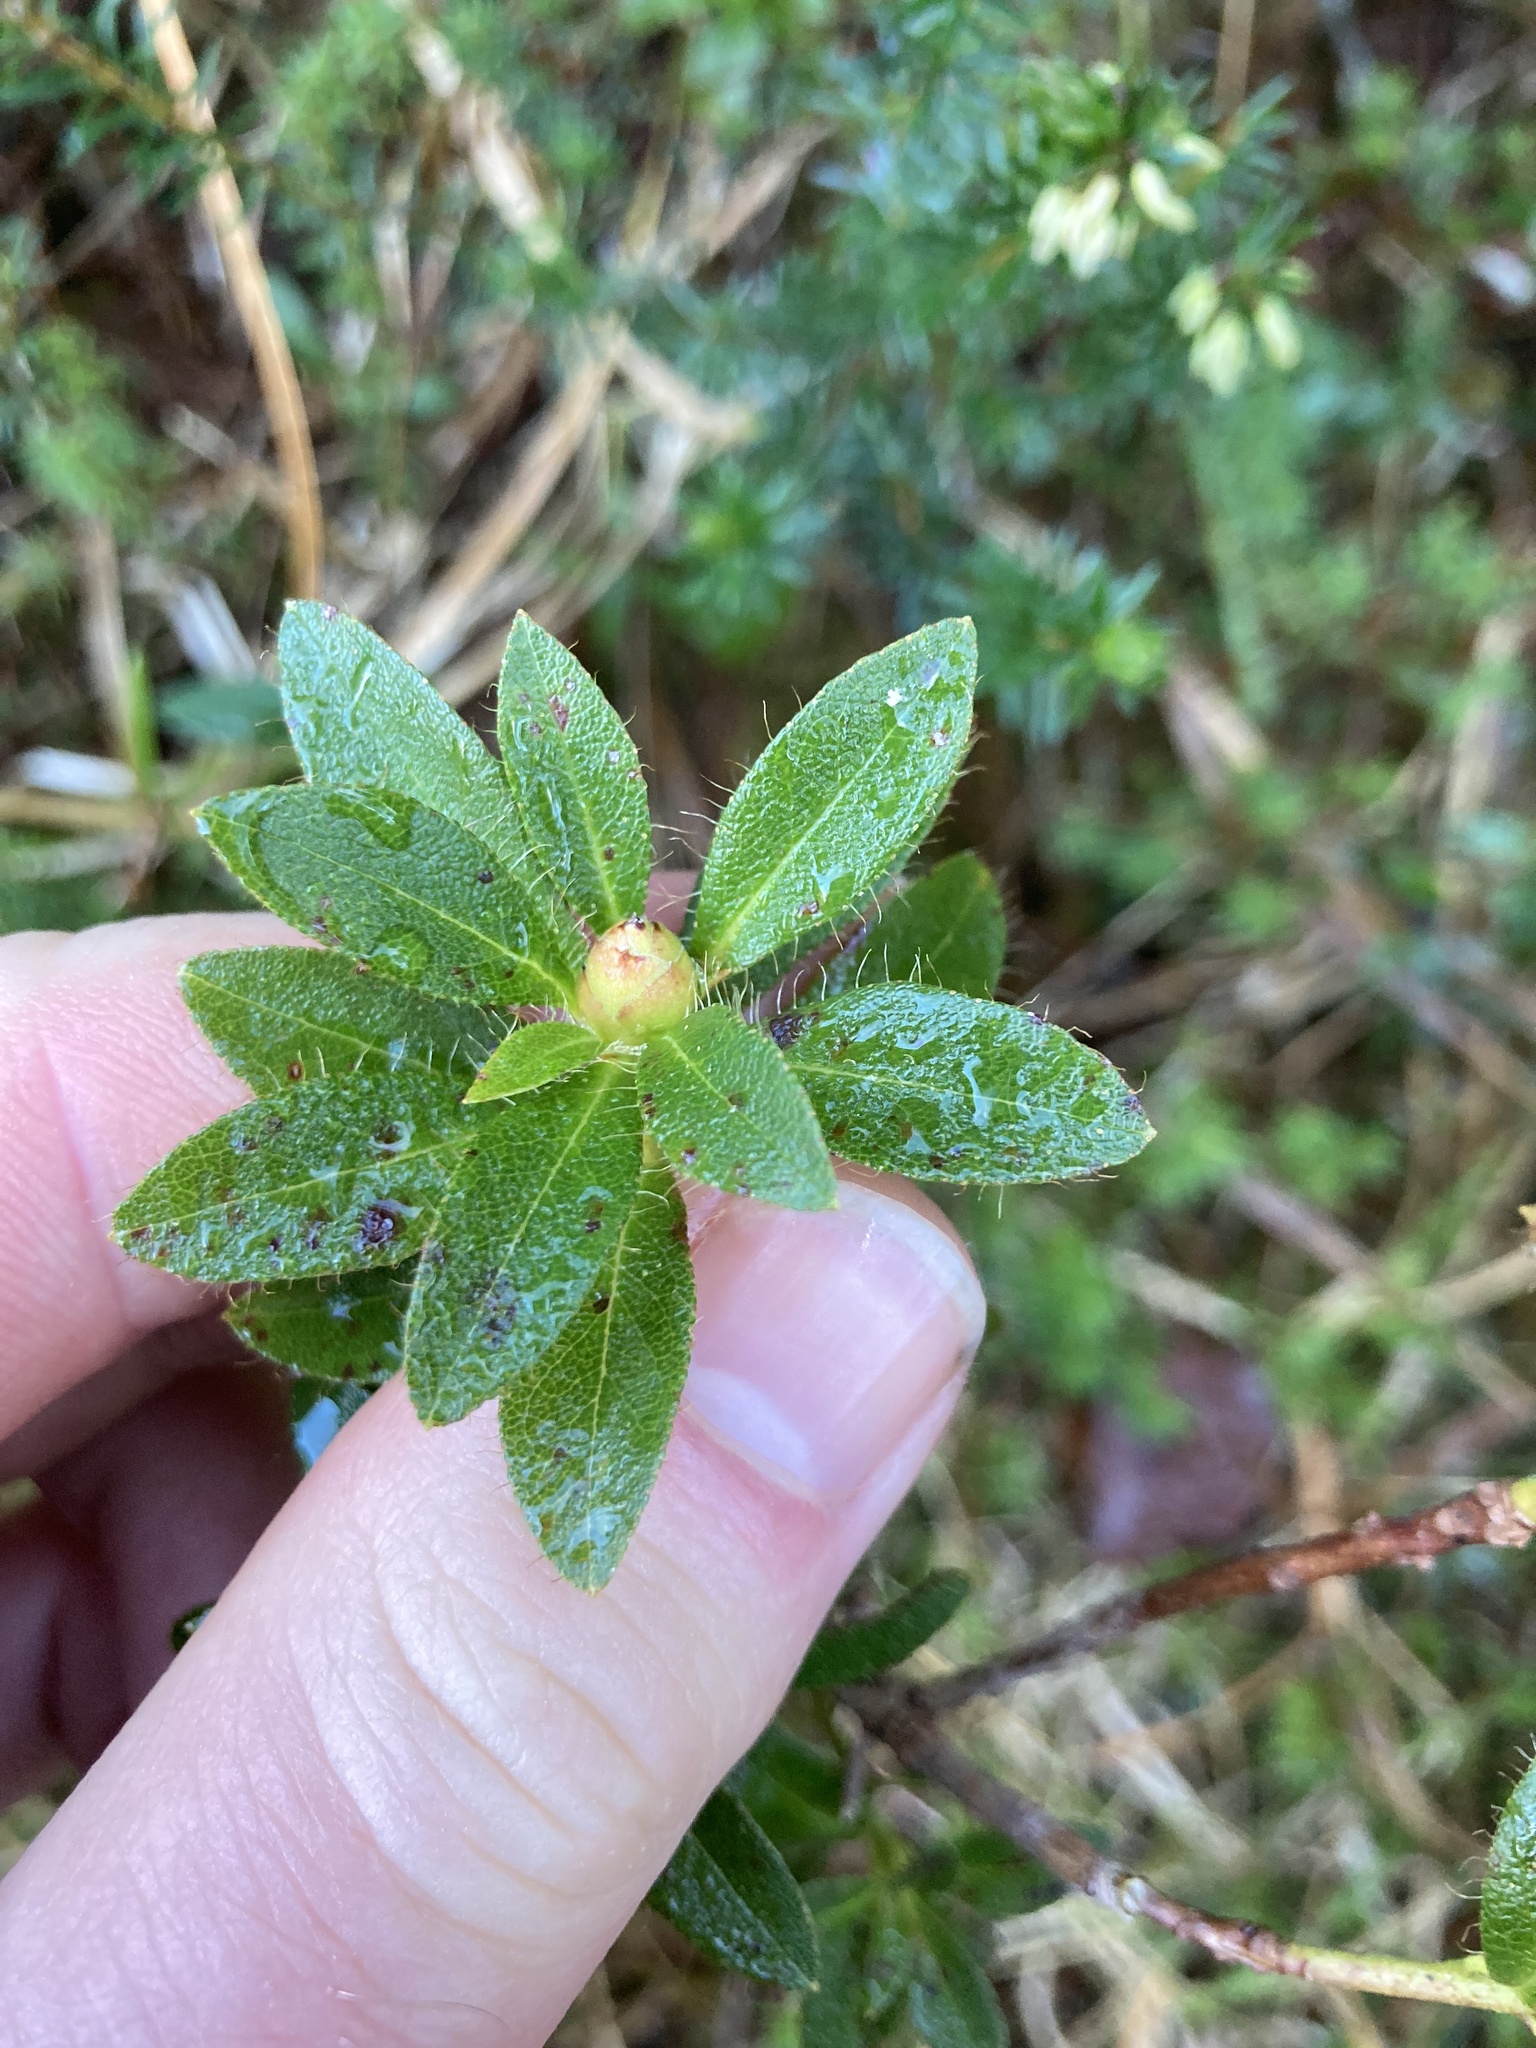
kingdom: Plantae
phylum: Tracheophyta
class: Magnoliopsida
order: Ericales
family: Ericaceae
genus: Rhododendron
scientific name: Rhododendron hirsutum
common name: Hairy alpenrose
